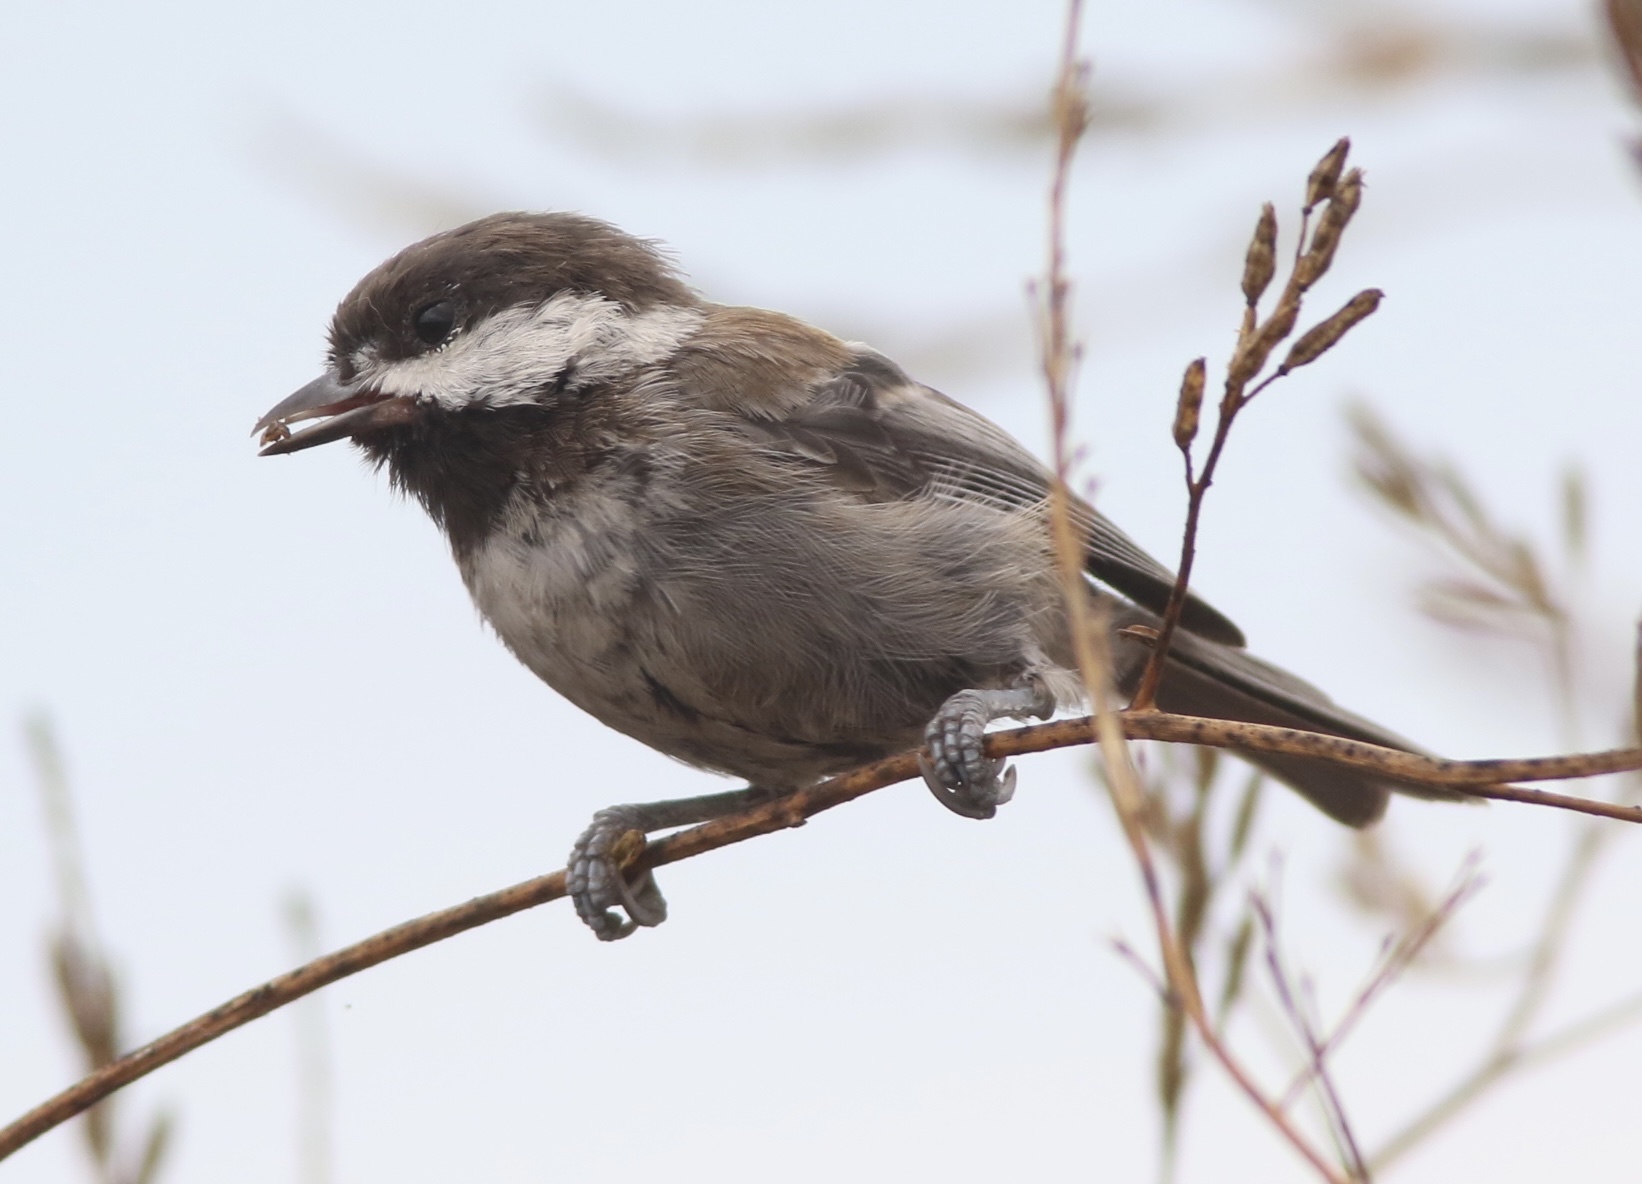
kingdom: Animalia
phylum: Chordata
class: Aves
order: Passeriformes
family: Paridae
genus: Poecile
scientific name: Poecile rufescens
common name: Chestnut-backed chickadee
